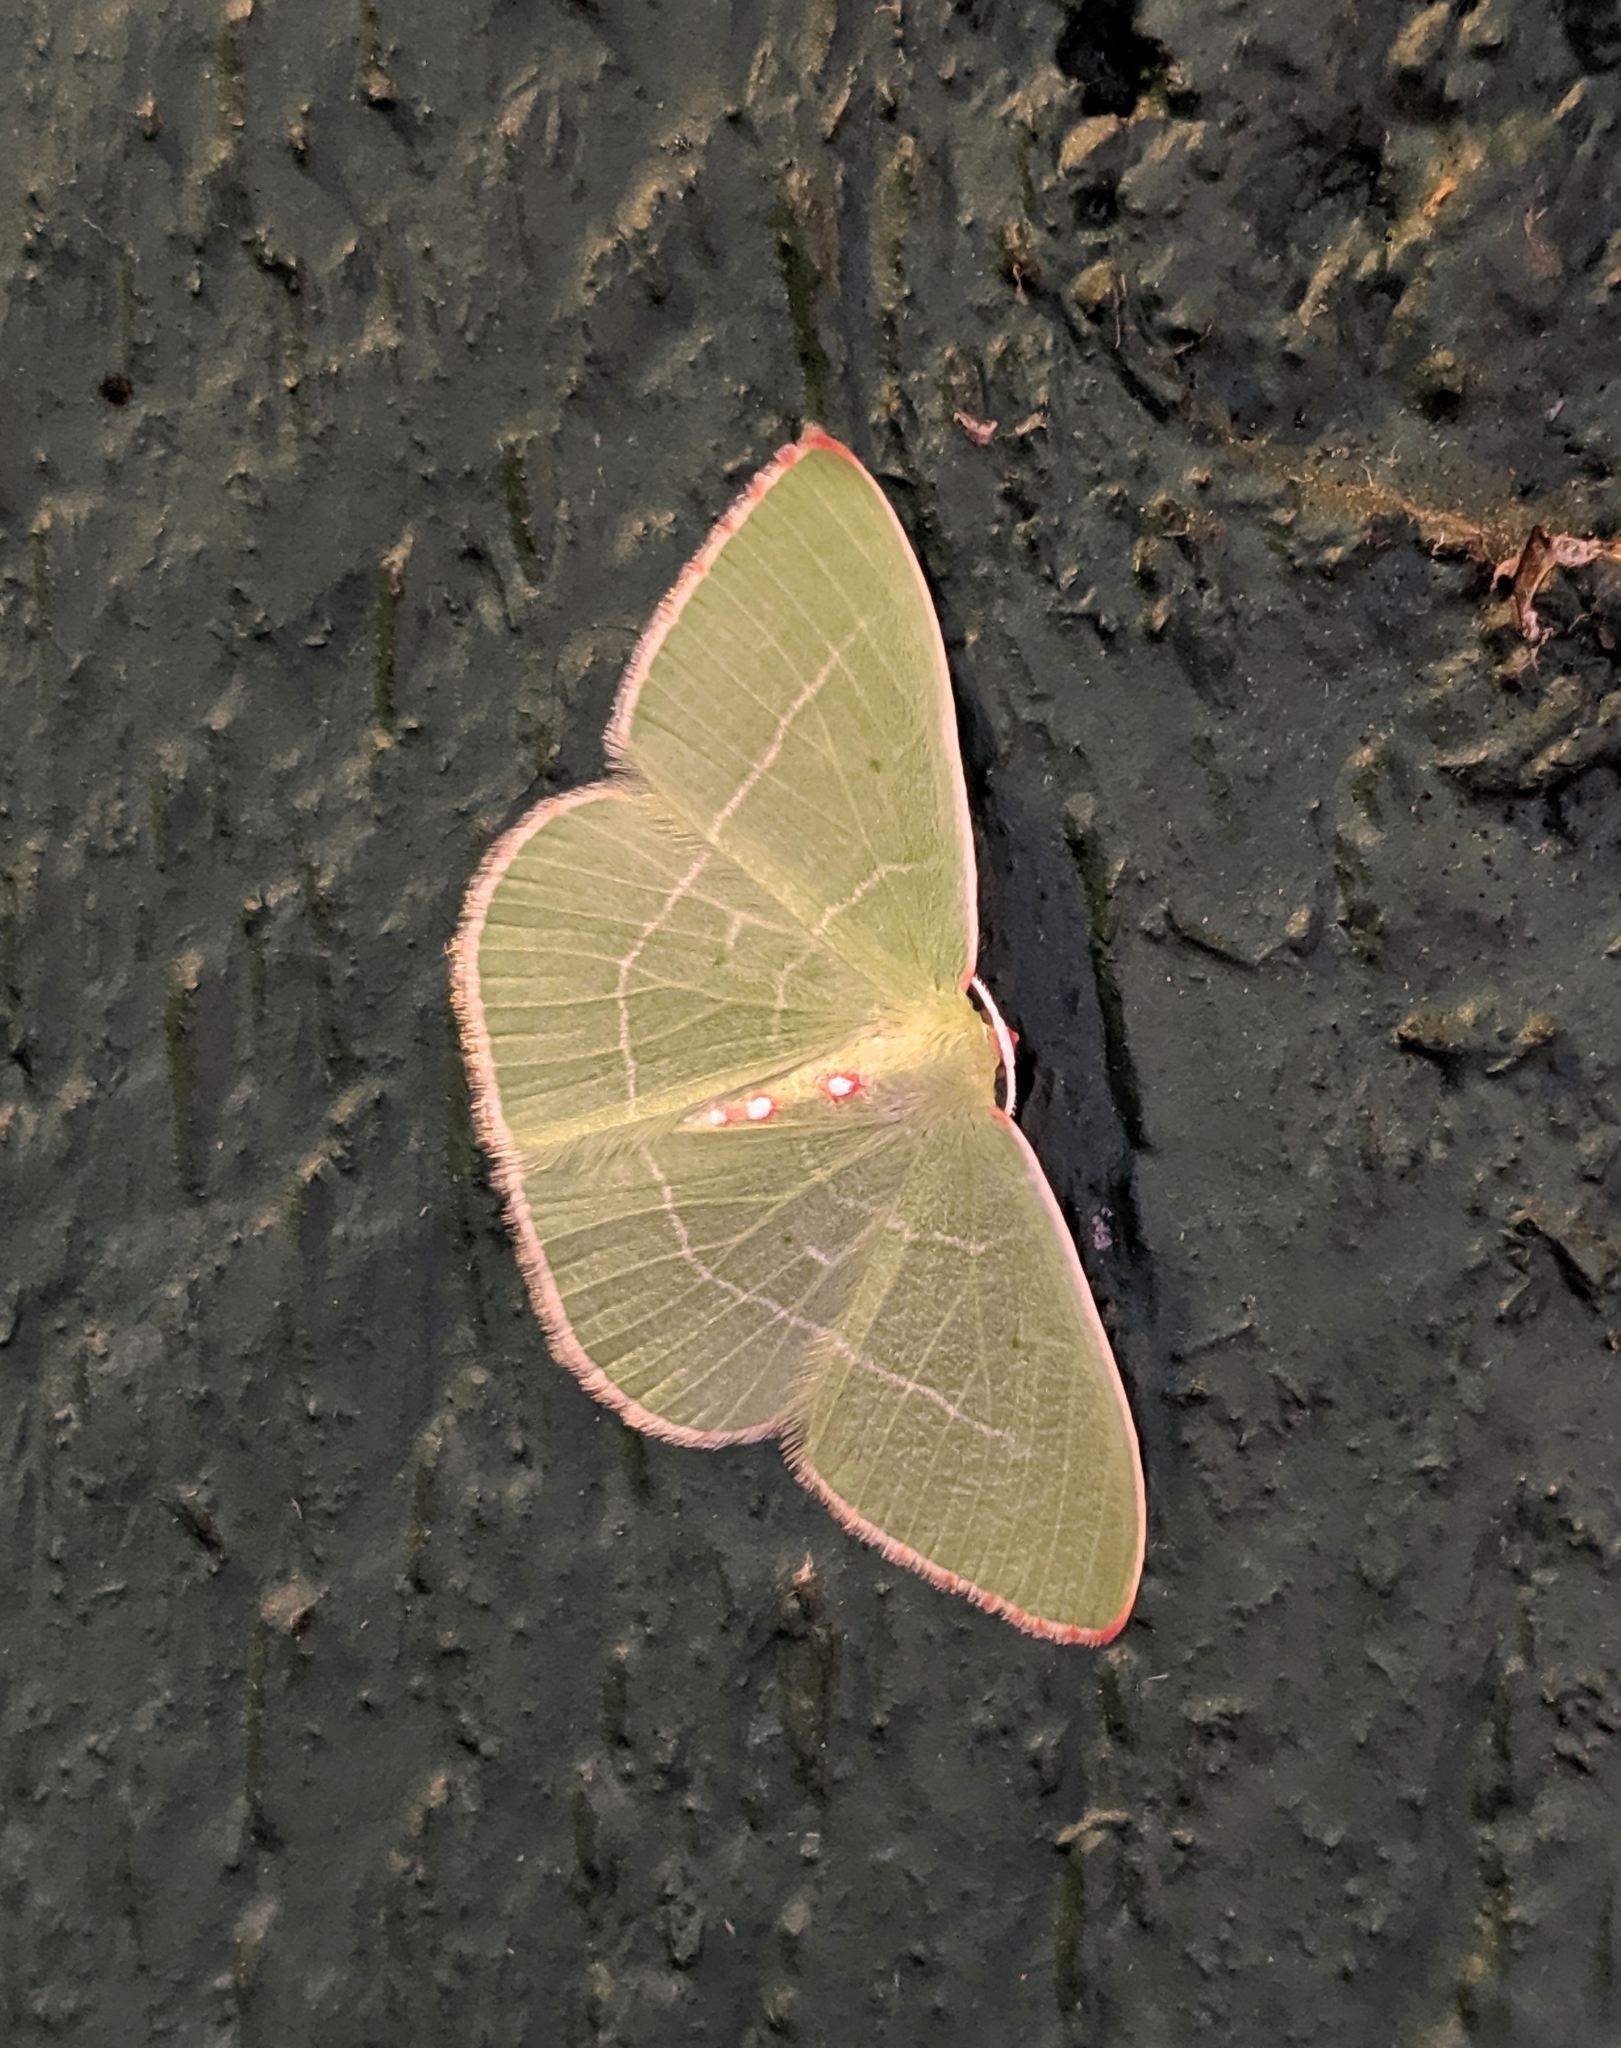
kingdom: Animalia
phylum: Arthropoda
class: Insecta
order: Lepidoptera
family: Geometridae
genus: Nemoria
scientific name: Nemoria darwiniata
